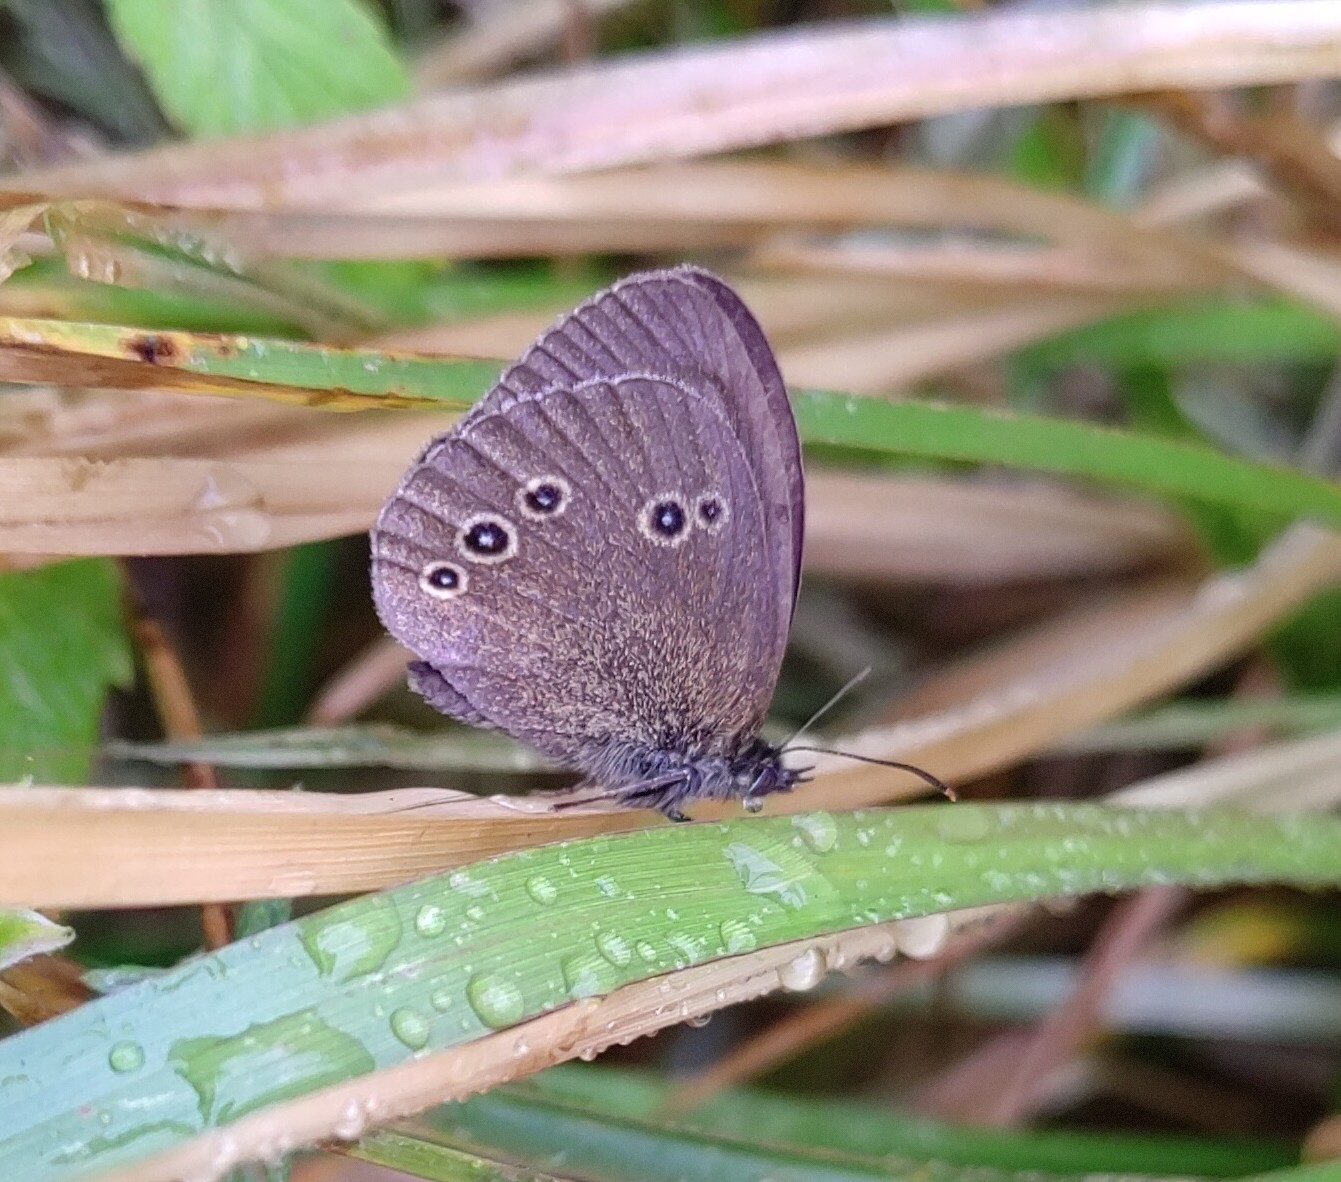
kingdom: Animalia
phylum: Arthropoda
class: Insecta
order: Lepidoptera
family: Nymphalidae
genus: Aphantopus
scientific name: Aphantopus hyperantus
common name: Ringlet
